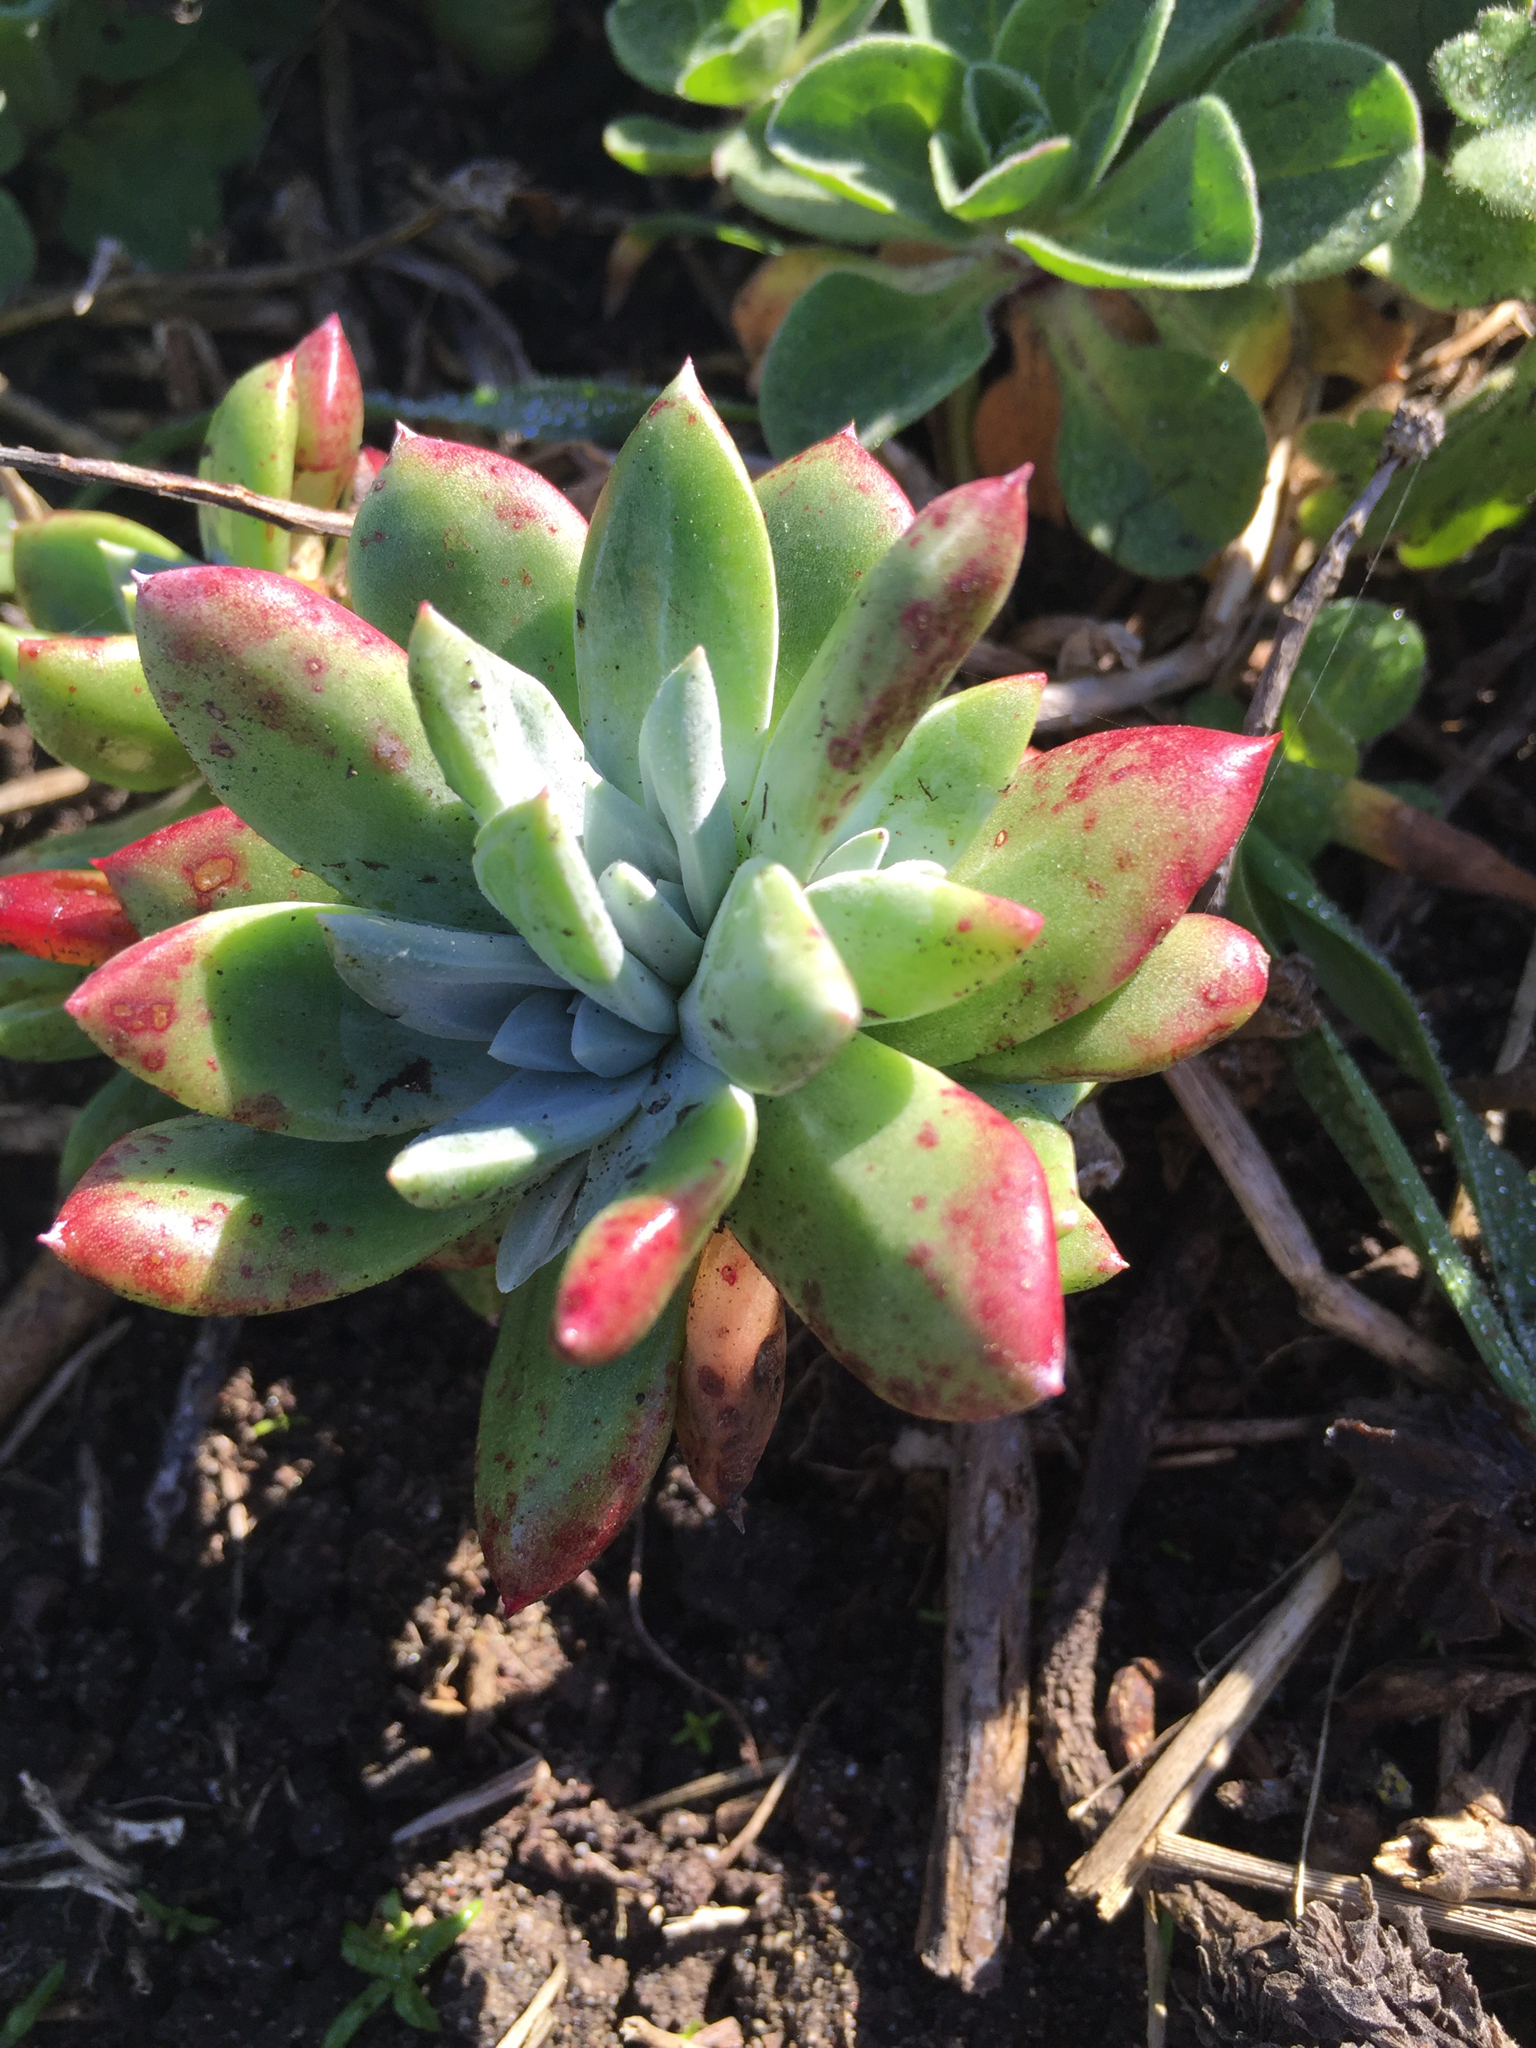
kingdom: Plantae
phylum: Tracheophyta
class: Magnoliopsida
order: Saxifragales
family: Crassulaceae
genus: Dudleya
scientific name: Dudleya farinosa
